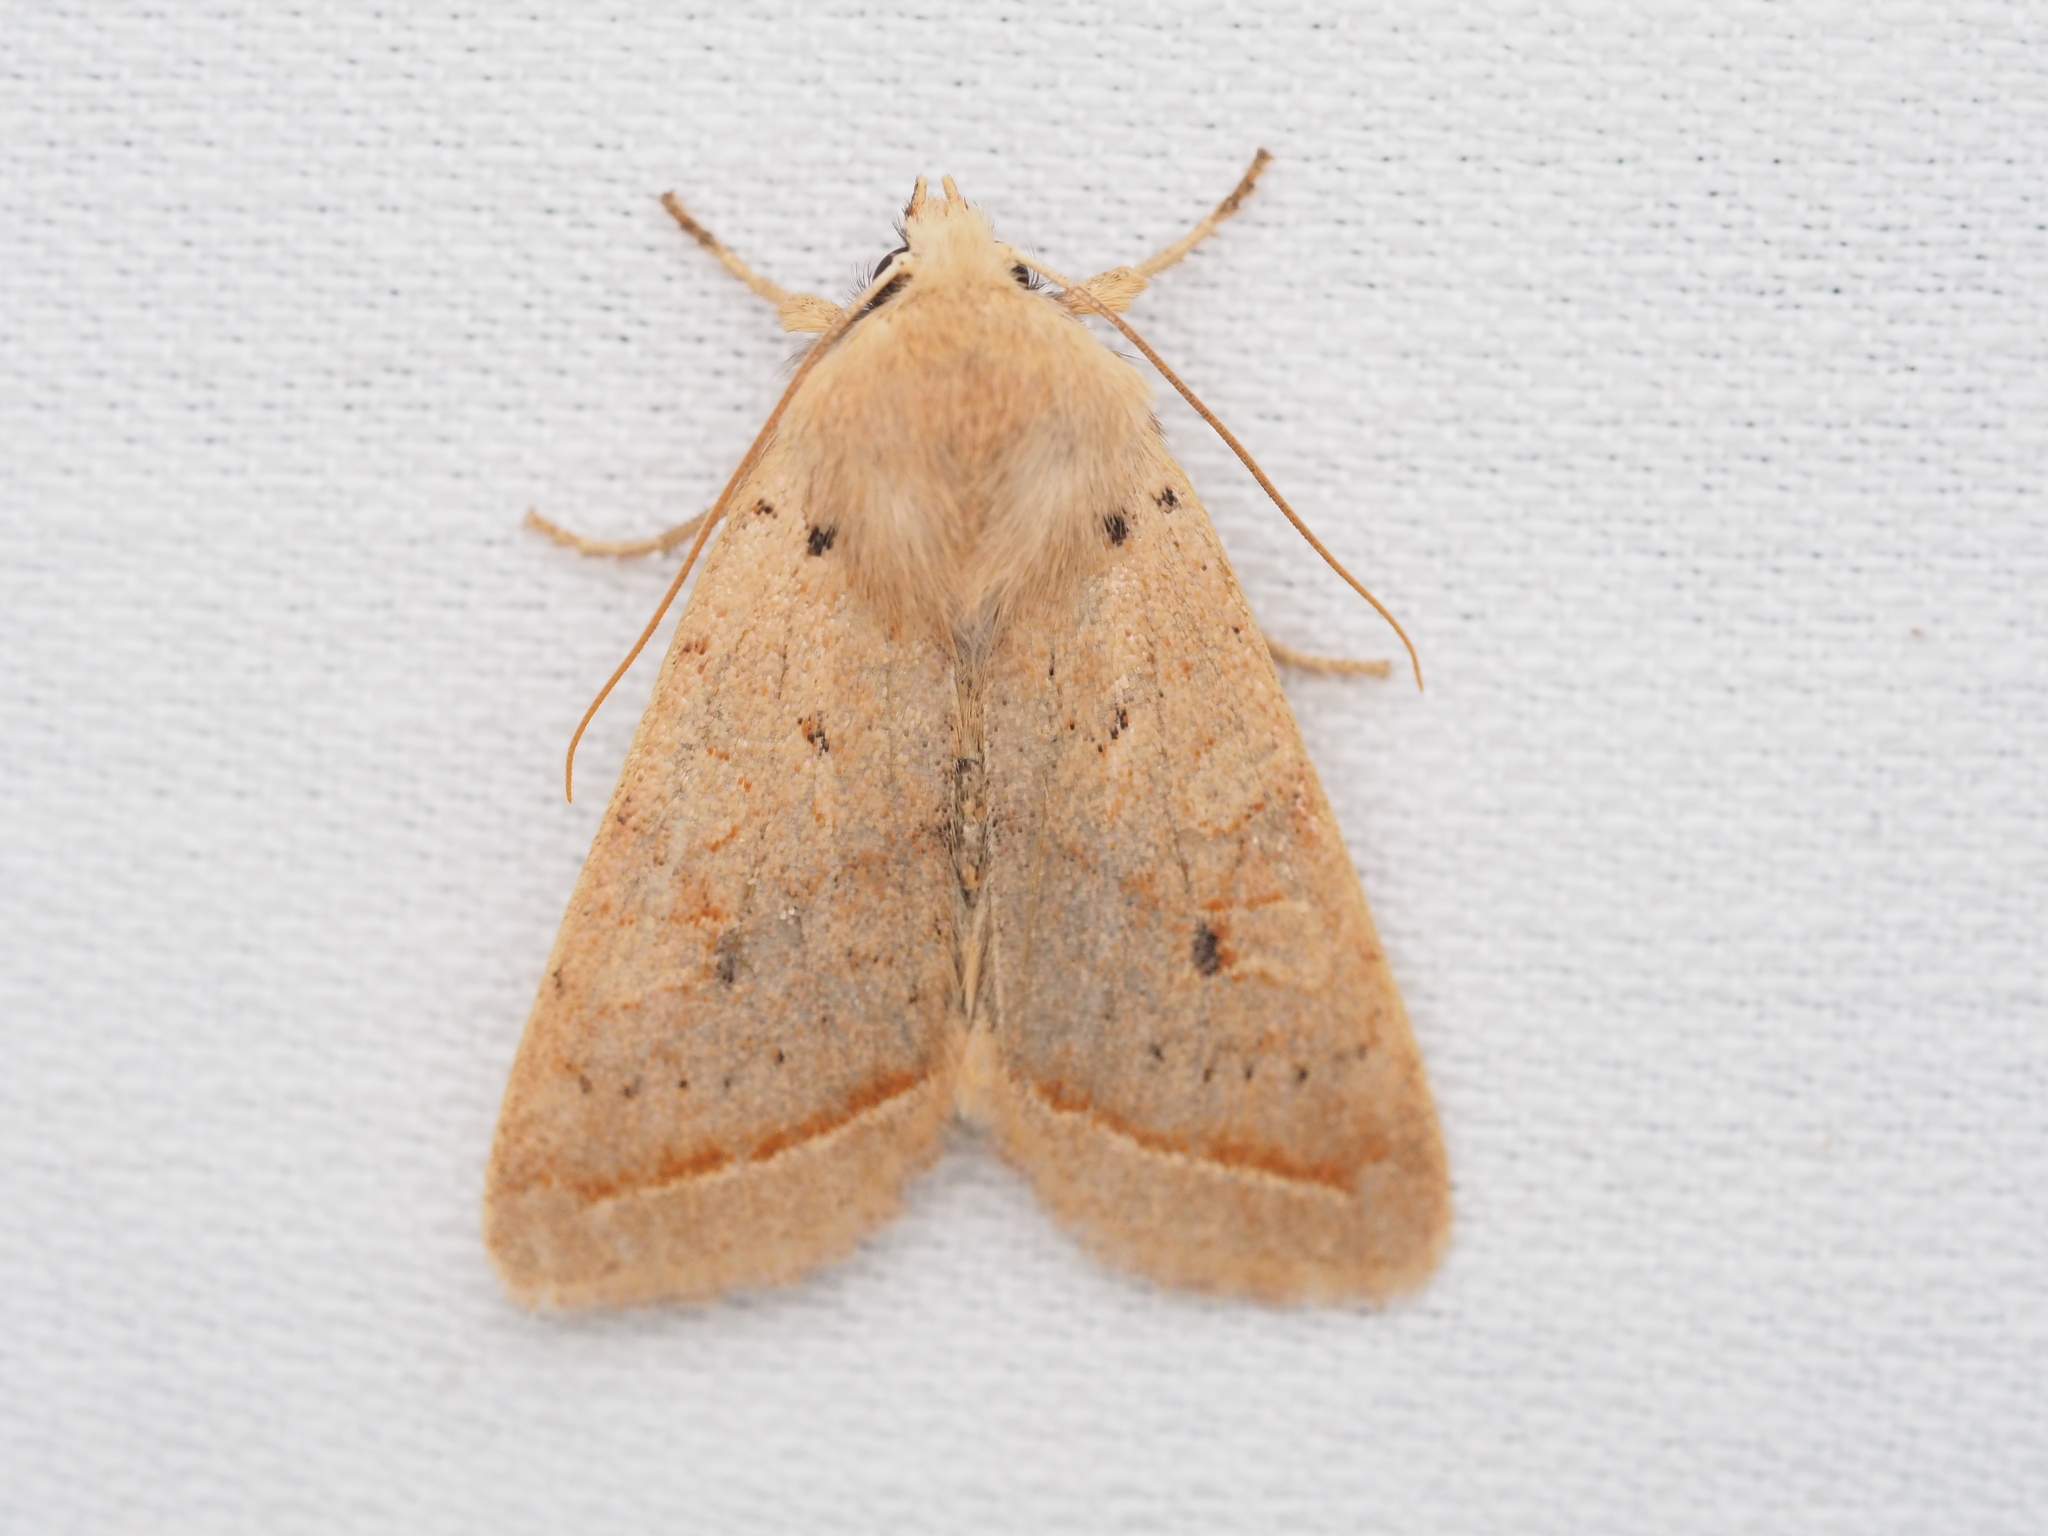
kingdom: Animalia
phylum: Arthropoda
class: Insecta
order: Lepidoptera
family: Noctuidae
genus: Agrochola
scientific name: Agrochola macilenta
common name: Yellow-line quaker
